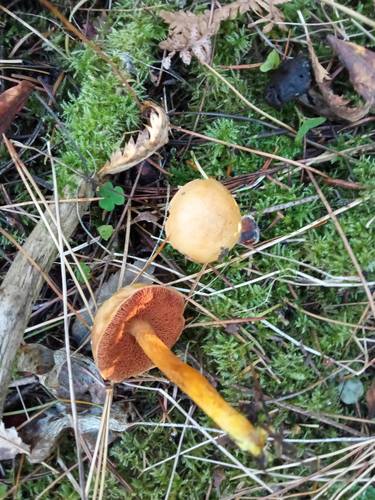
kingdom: Fungi
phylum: Basidiomycota
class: Agaricomycetes
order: Boletales
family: Boletaceae
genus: Chalciporus
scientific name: Chalciporus piperatus
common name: Peppery bolete
